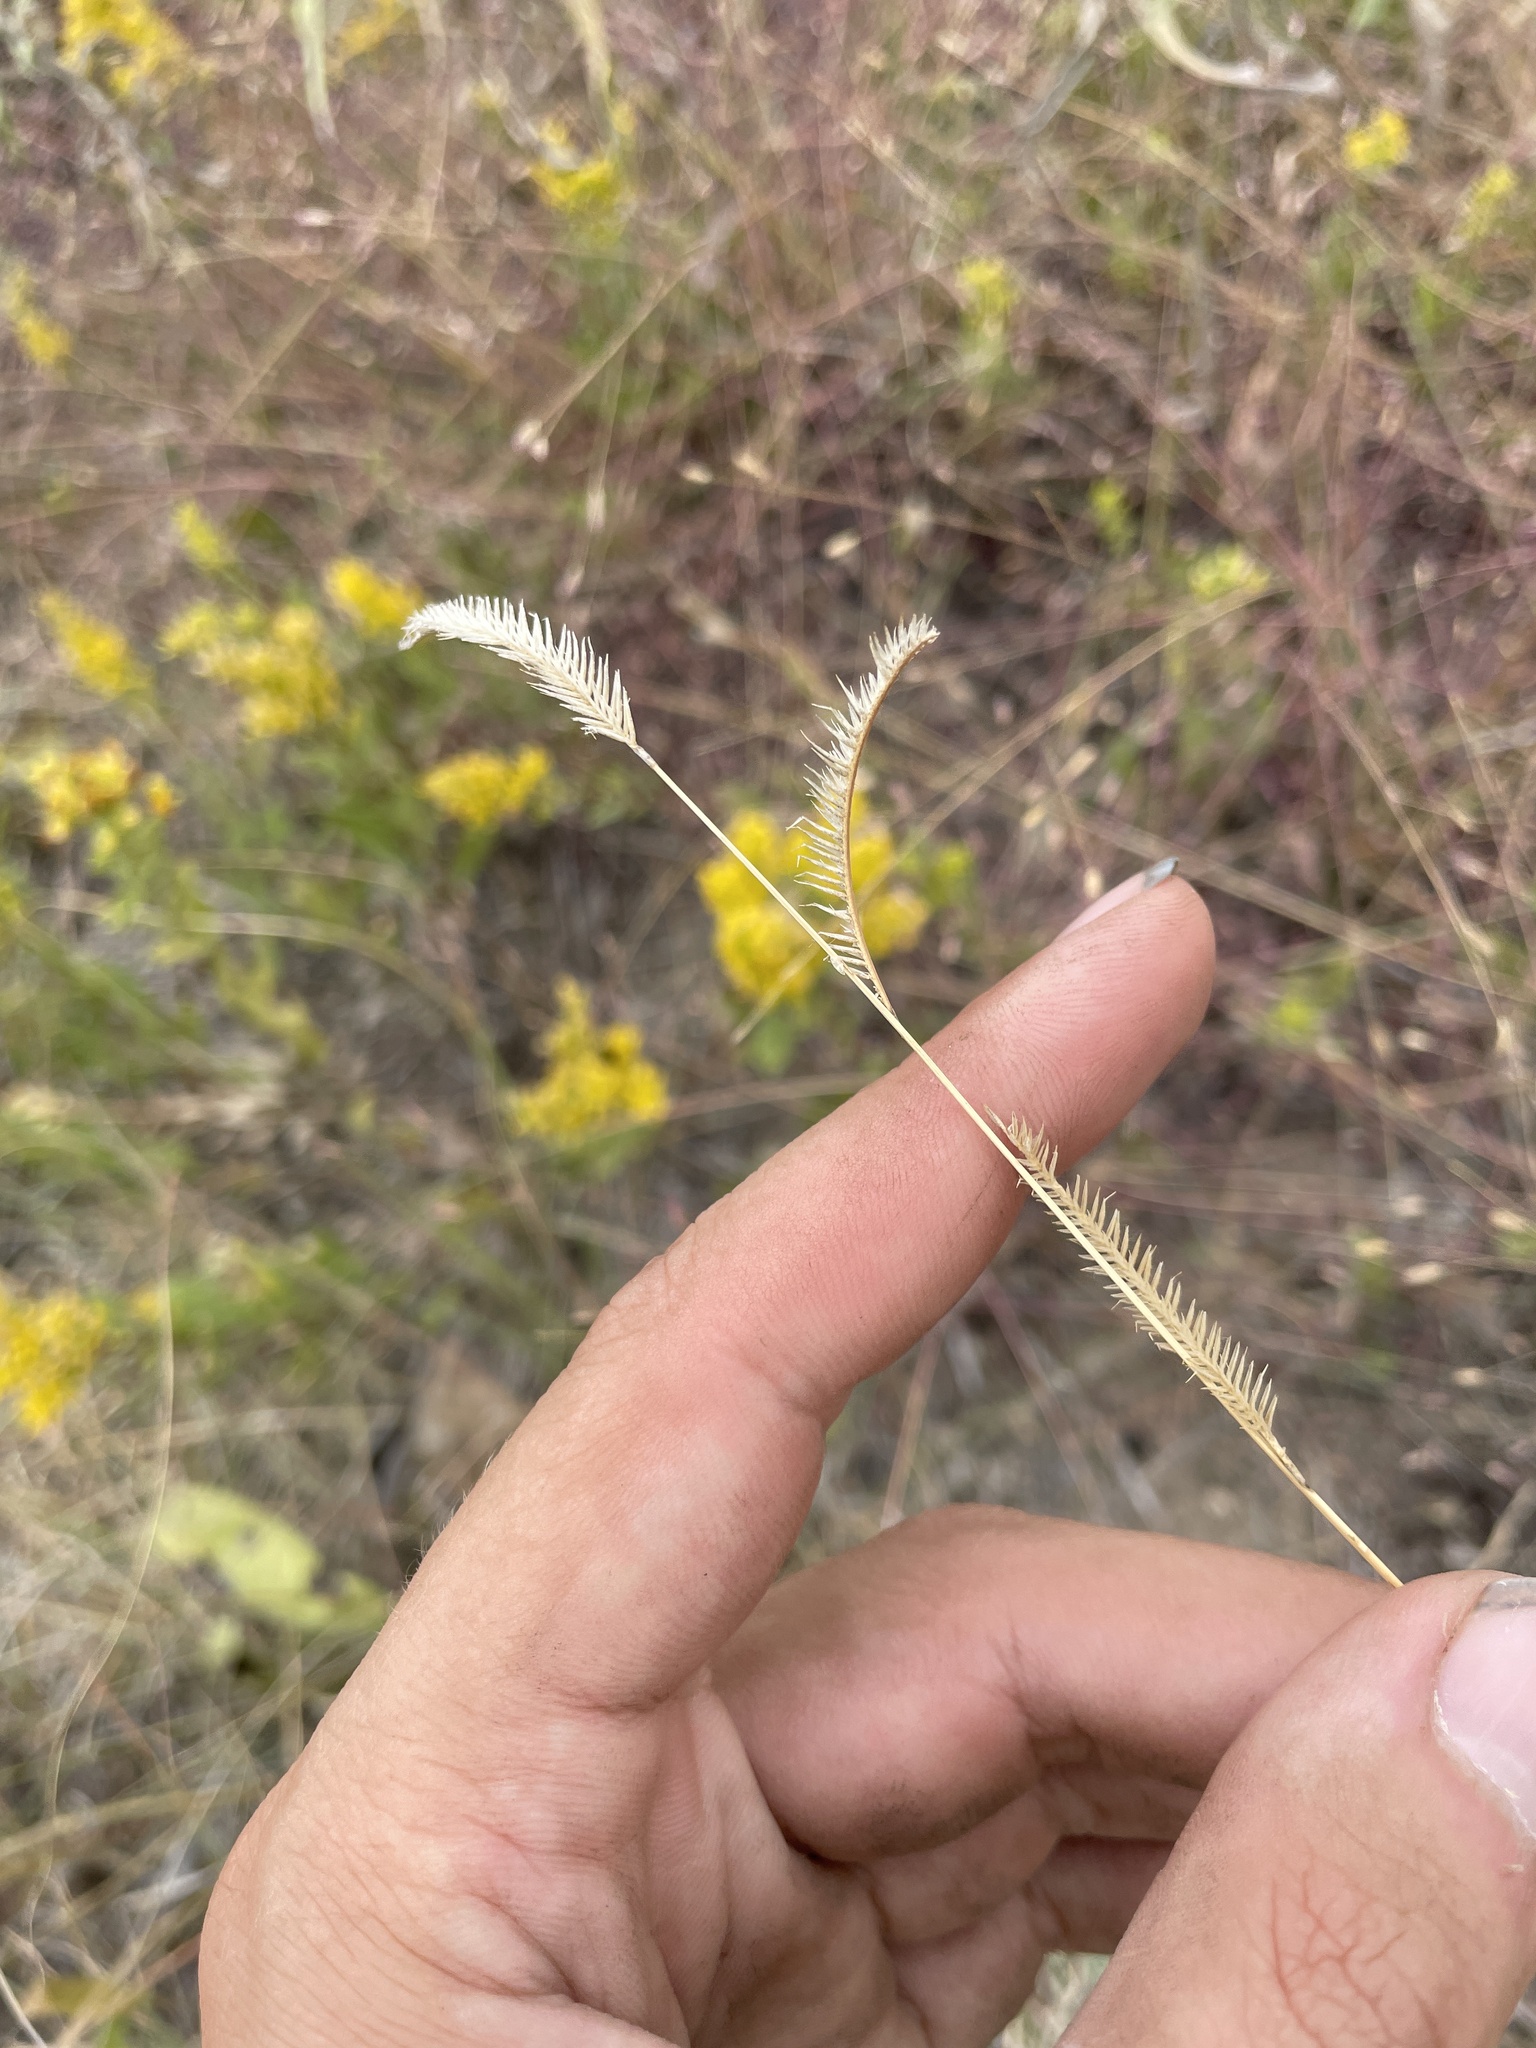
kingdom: Plantae
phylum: Tracheophyta
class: Liliopsida
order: Poales
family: Poaceae
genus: Bouteloua
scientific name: Bouteloua gracilis
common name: Blue grama
